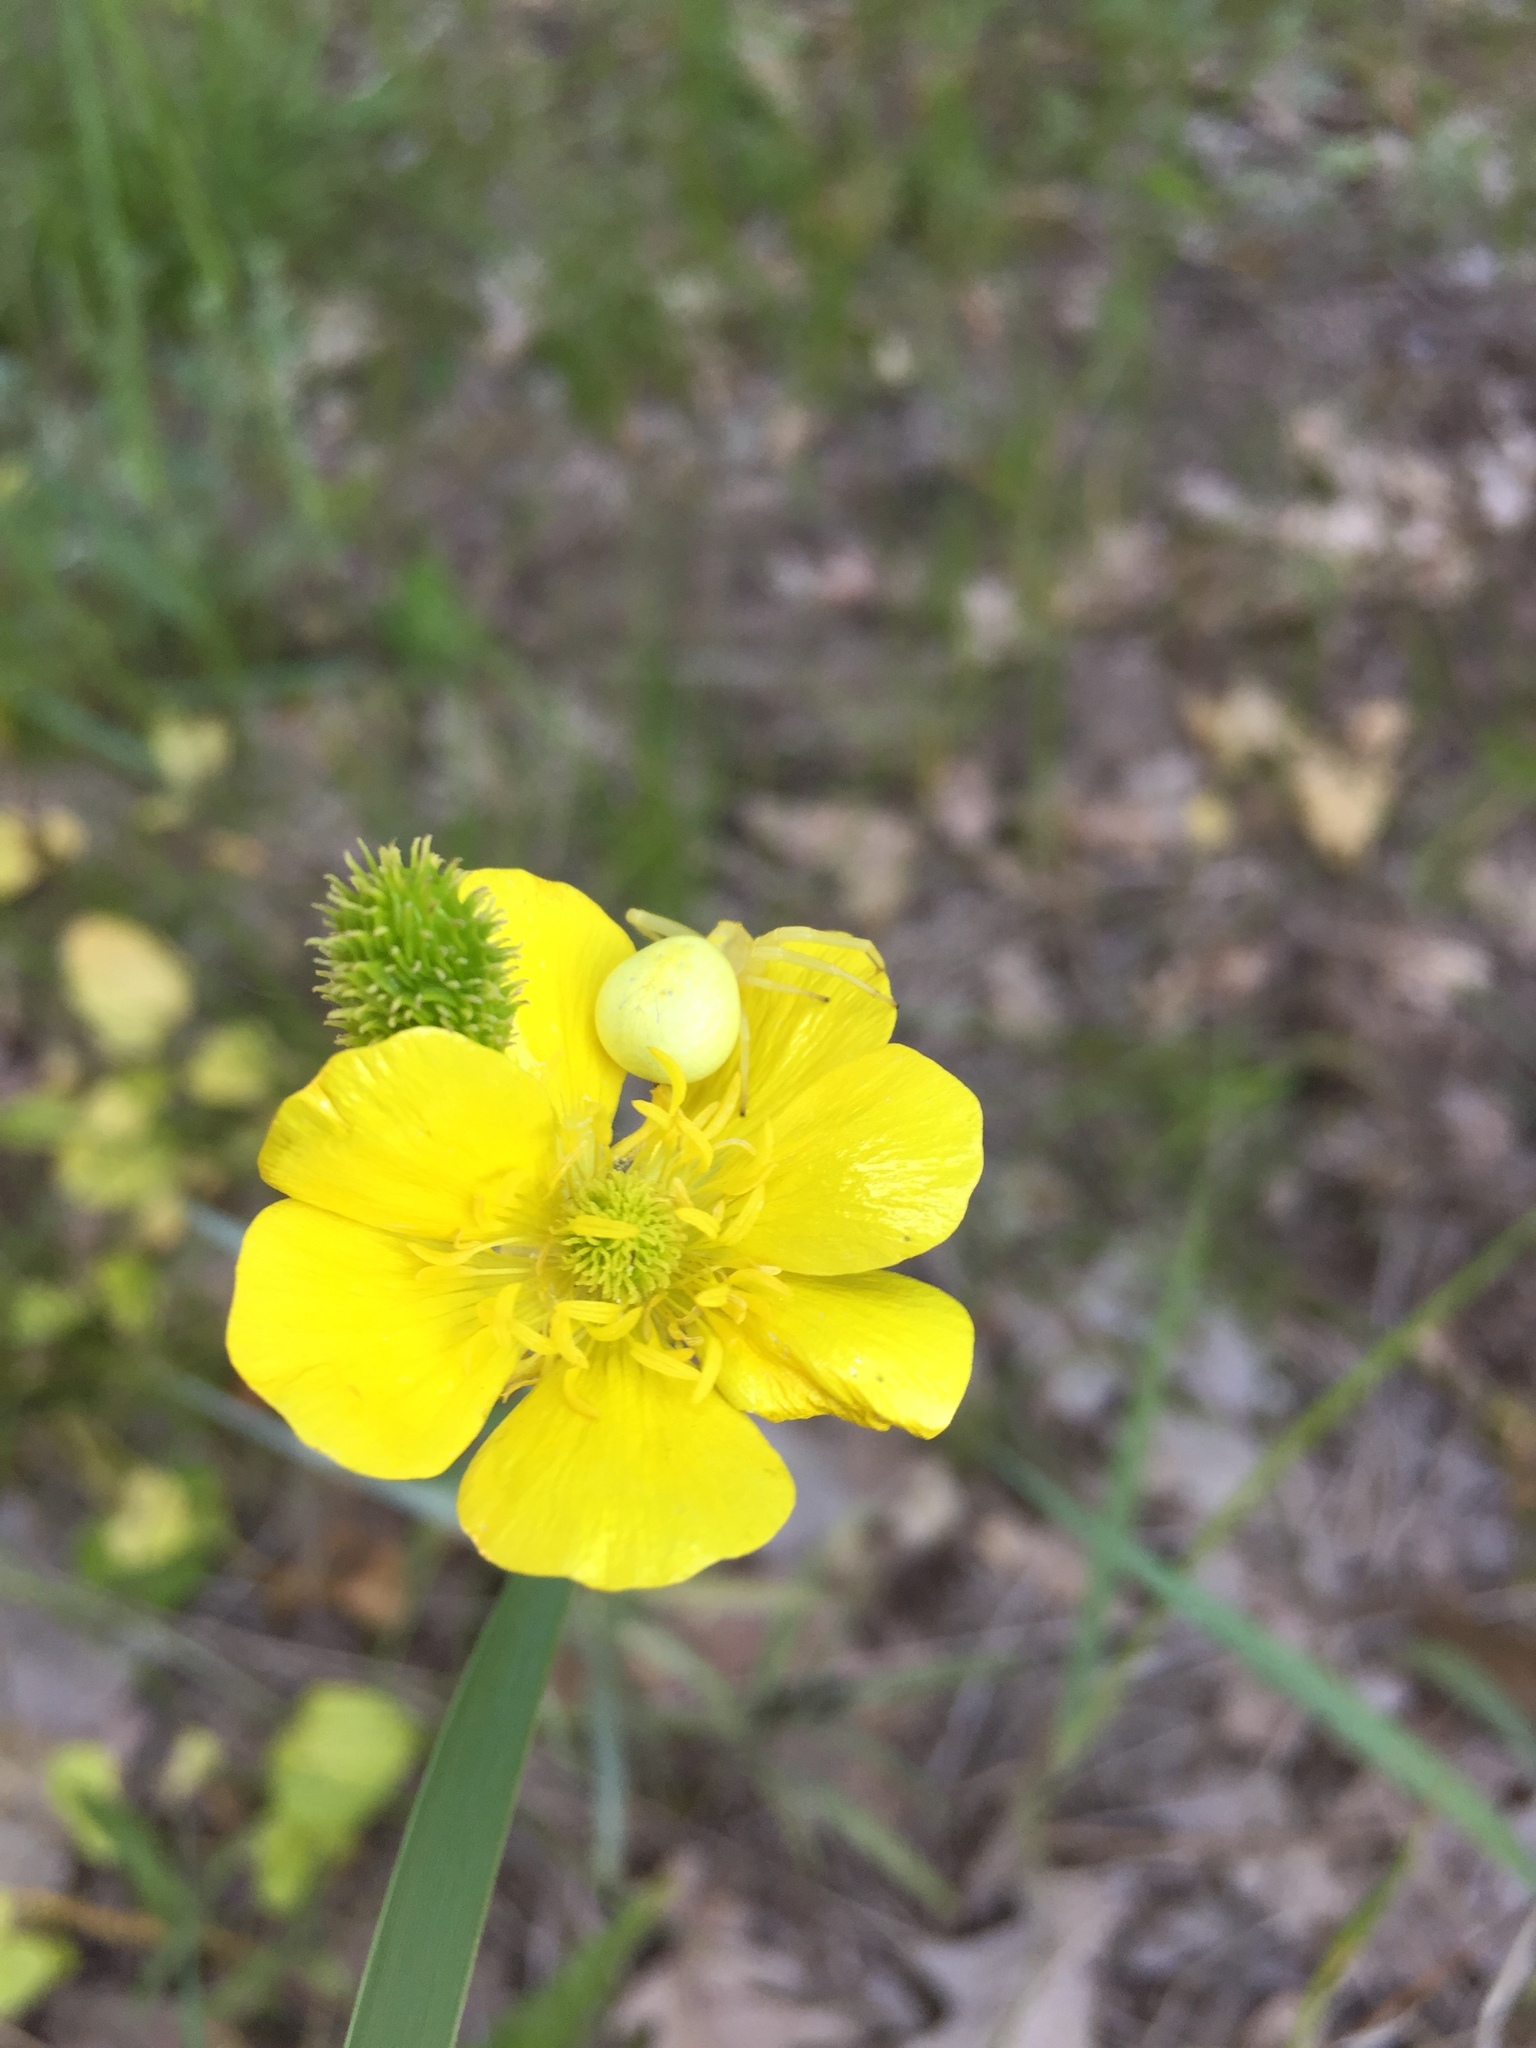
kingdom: Plantae
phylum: Tracheophyta
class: Magnoliopsida
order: Ranunculales
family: Ranunculaceae
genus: Ranunculus
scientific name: Ranunculus illyricus
